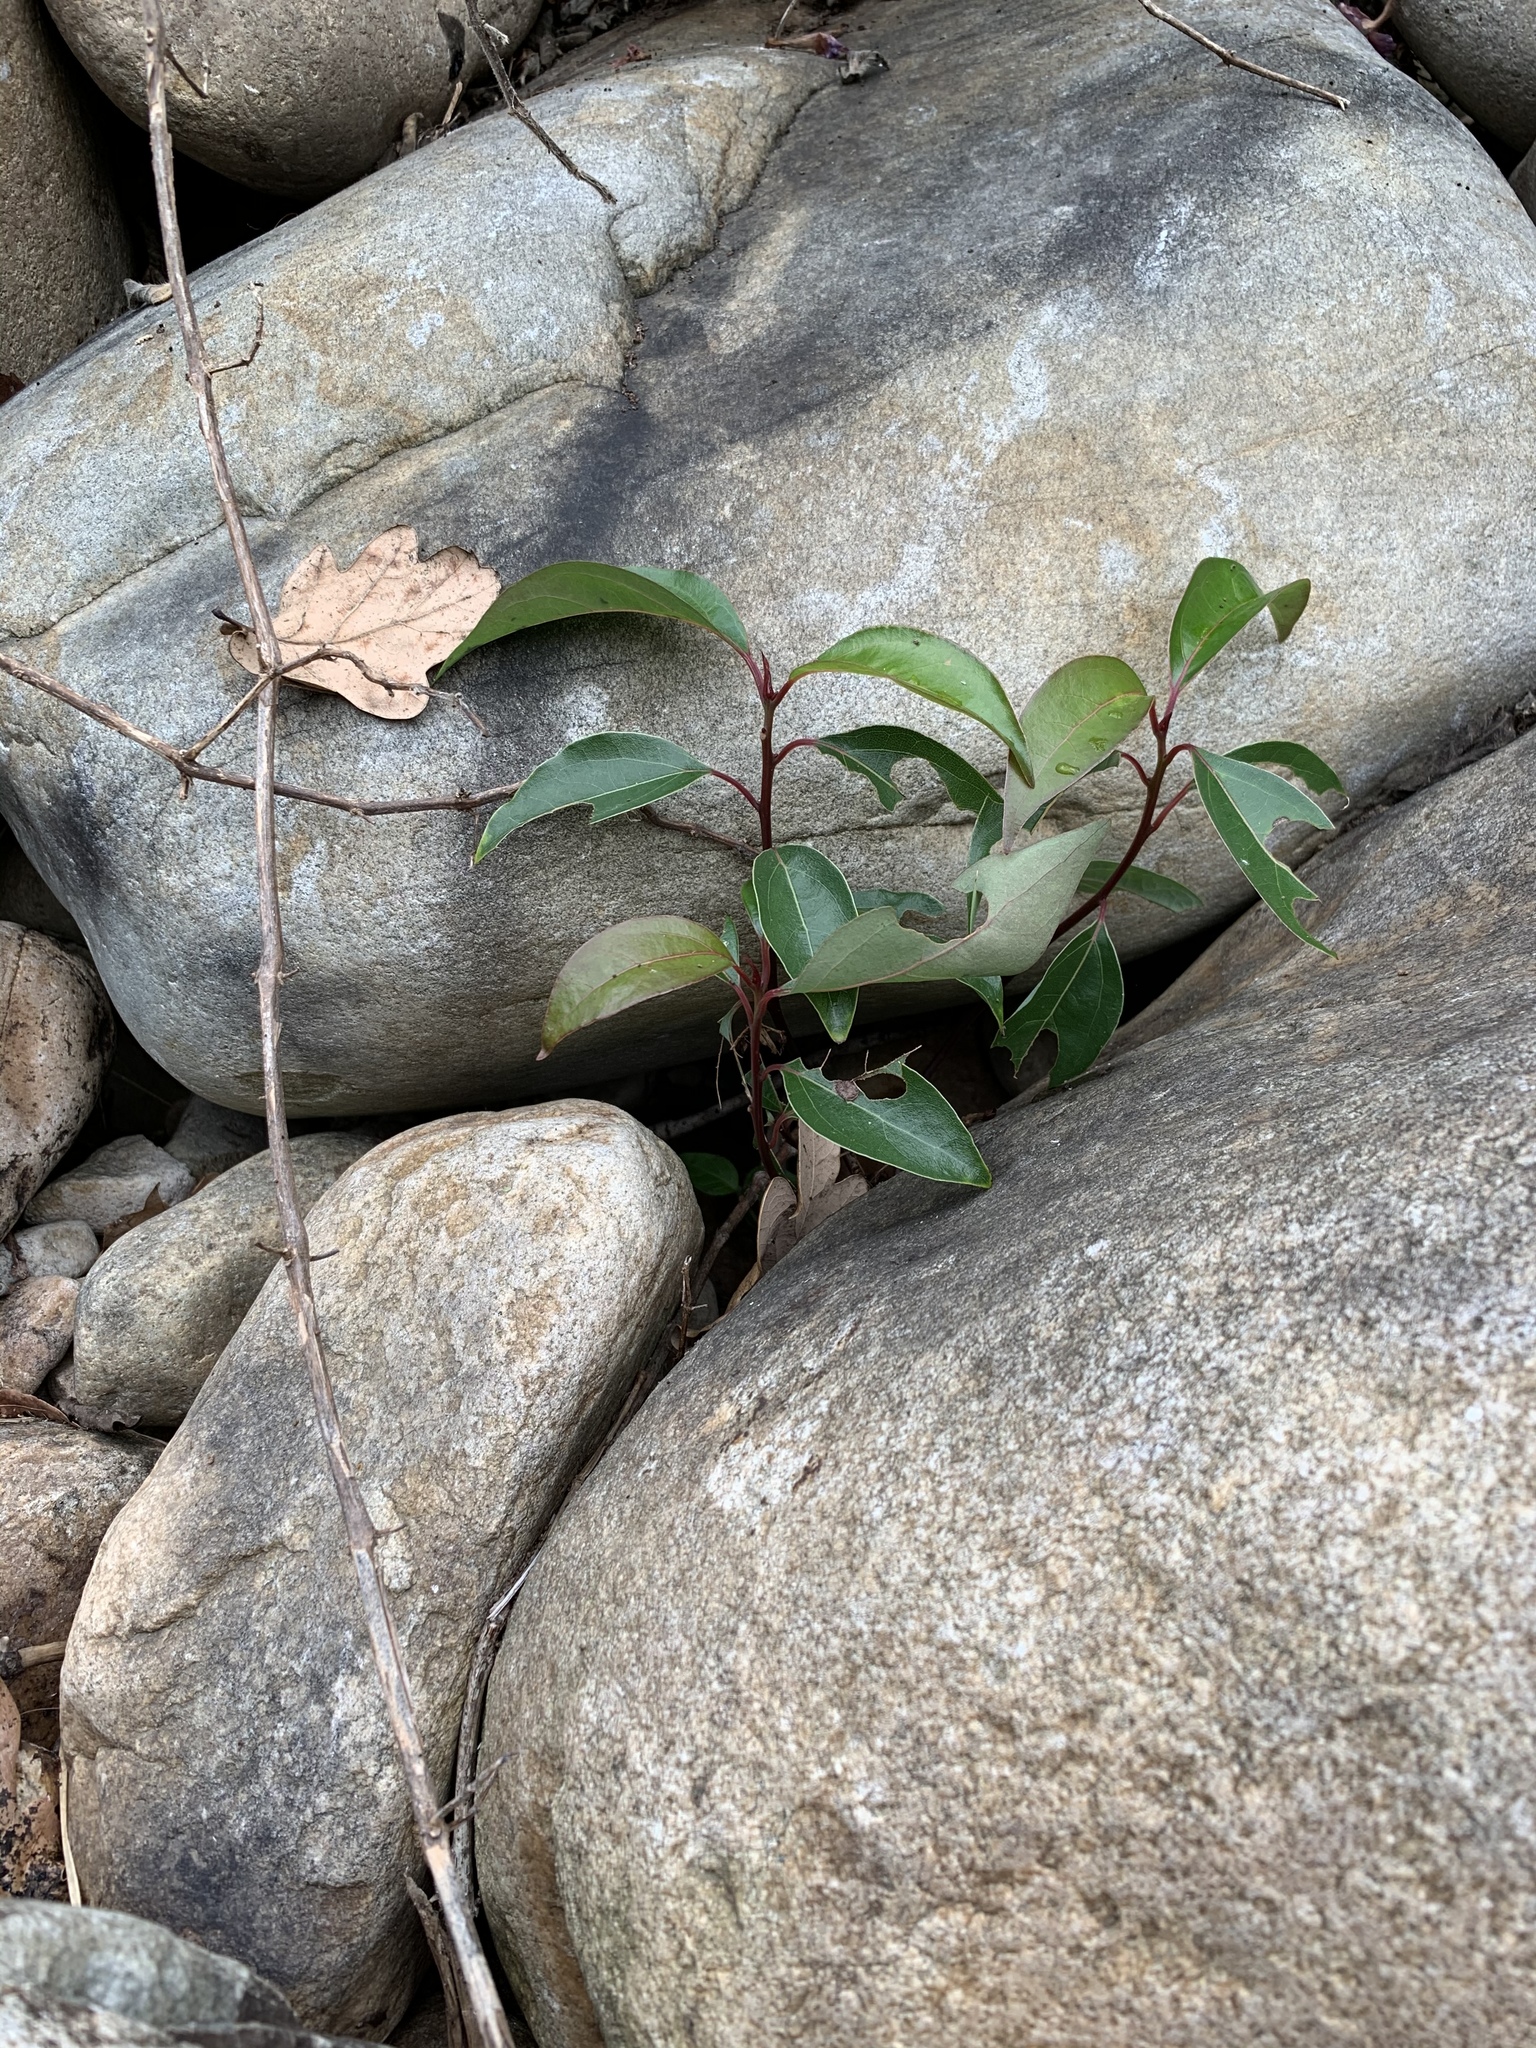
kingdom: Plantae
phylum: Tracheophyta
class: Magnoliopsida
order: Laurales
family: Lauraceae
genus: Cinnamomum
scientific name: Cinnamomum camphora
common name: Camphortree
